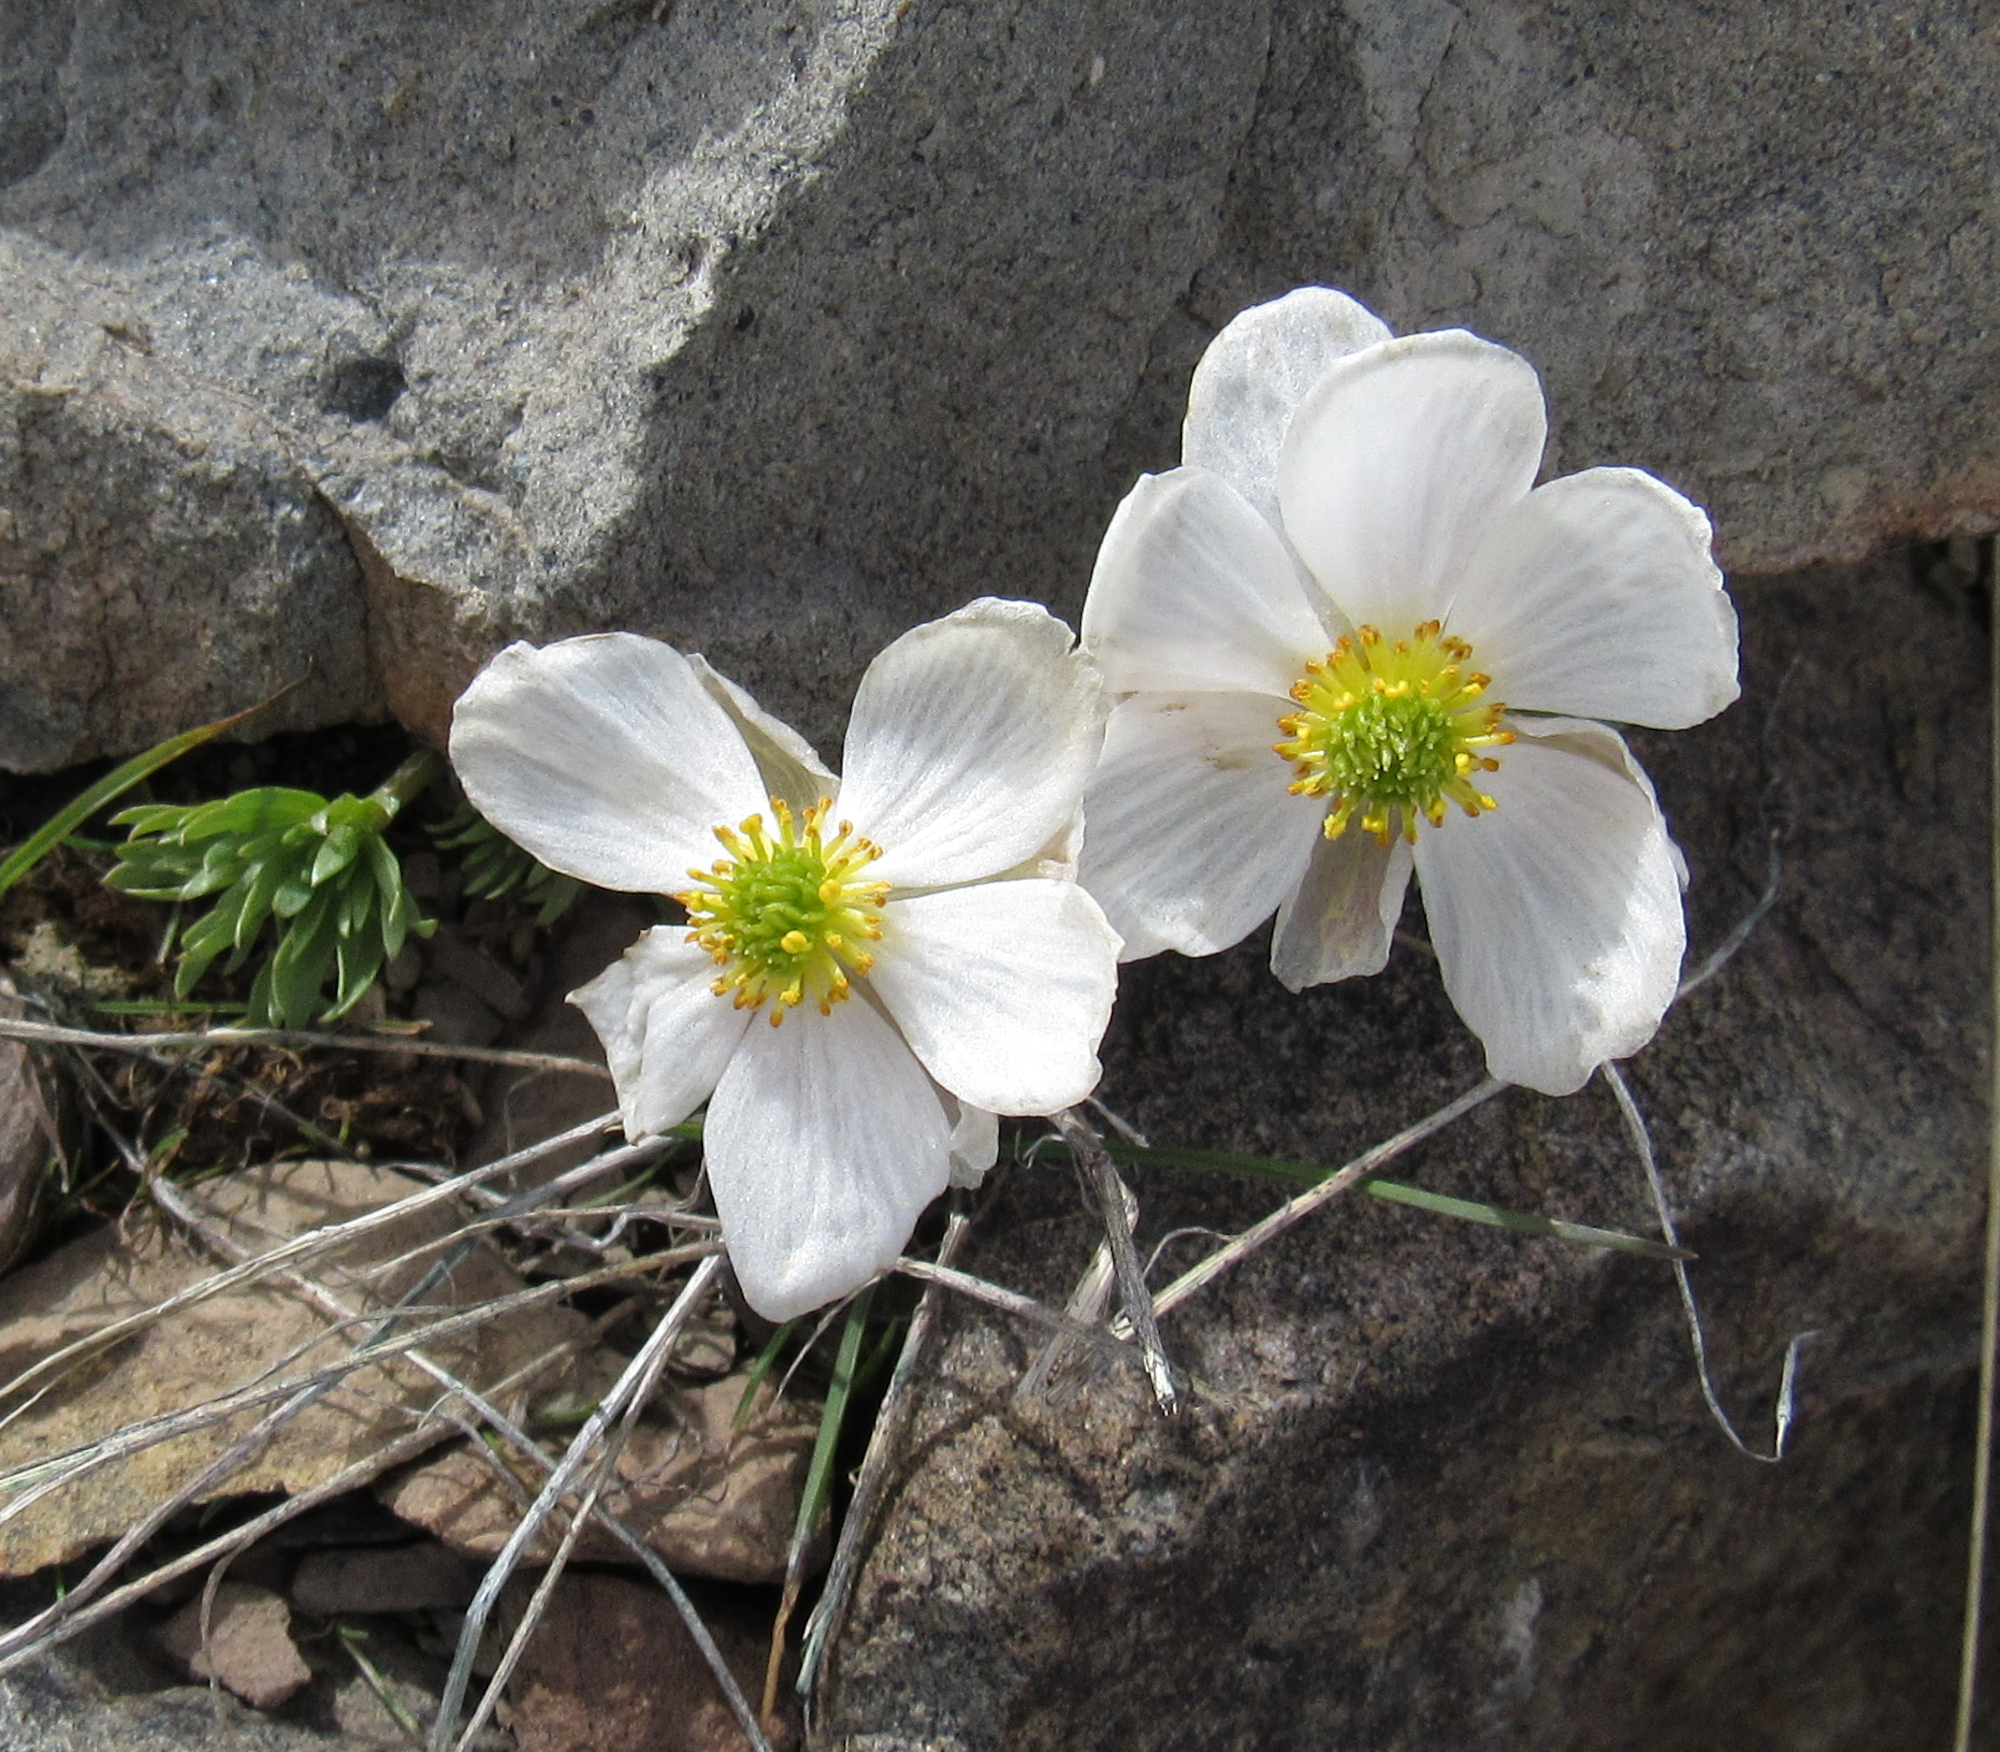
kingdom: Plantae
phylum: Tracheophyta
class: Magnoliopsida
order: Ranunculales
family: Ranunculaceae
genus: Beckwithia
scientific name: Beckwithia andersonii
